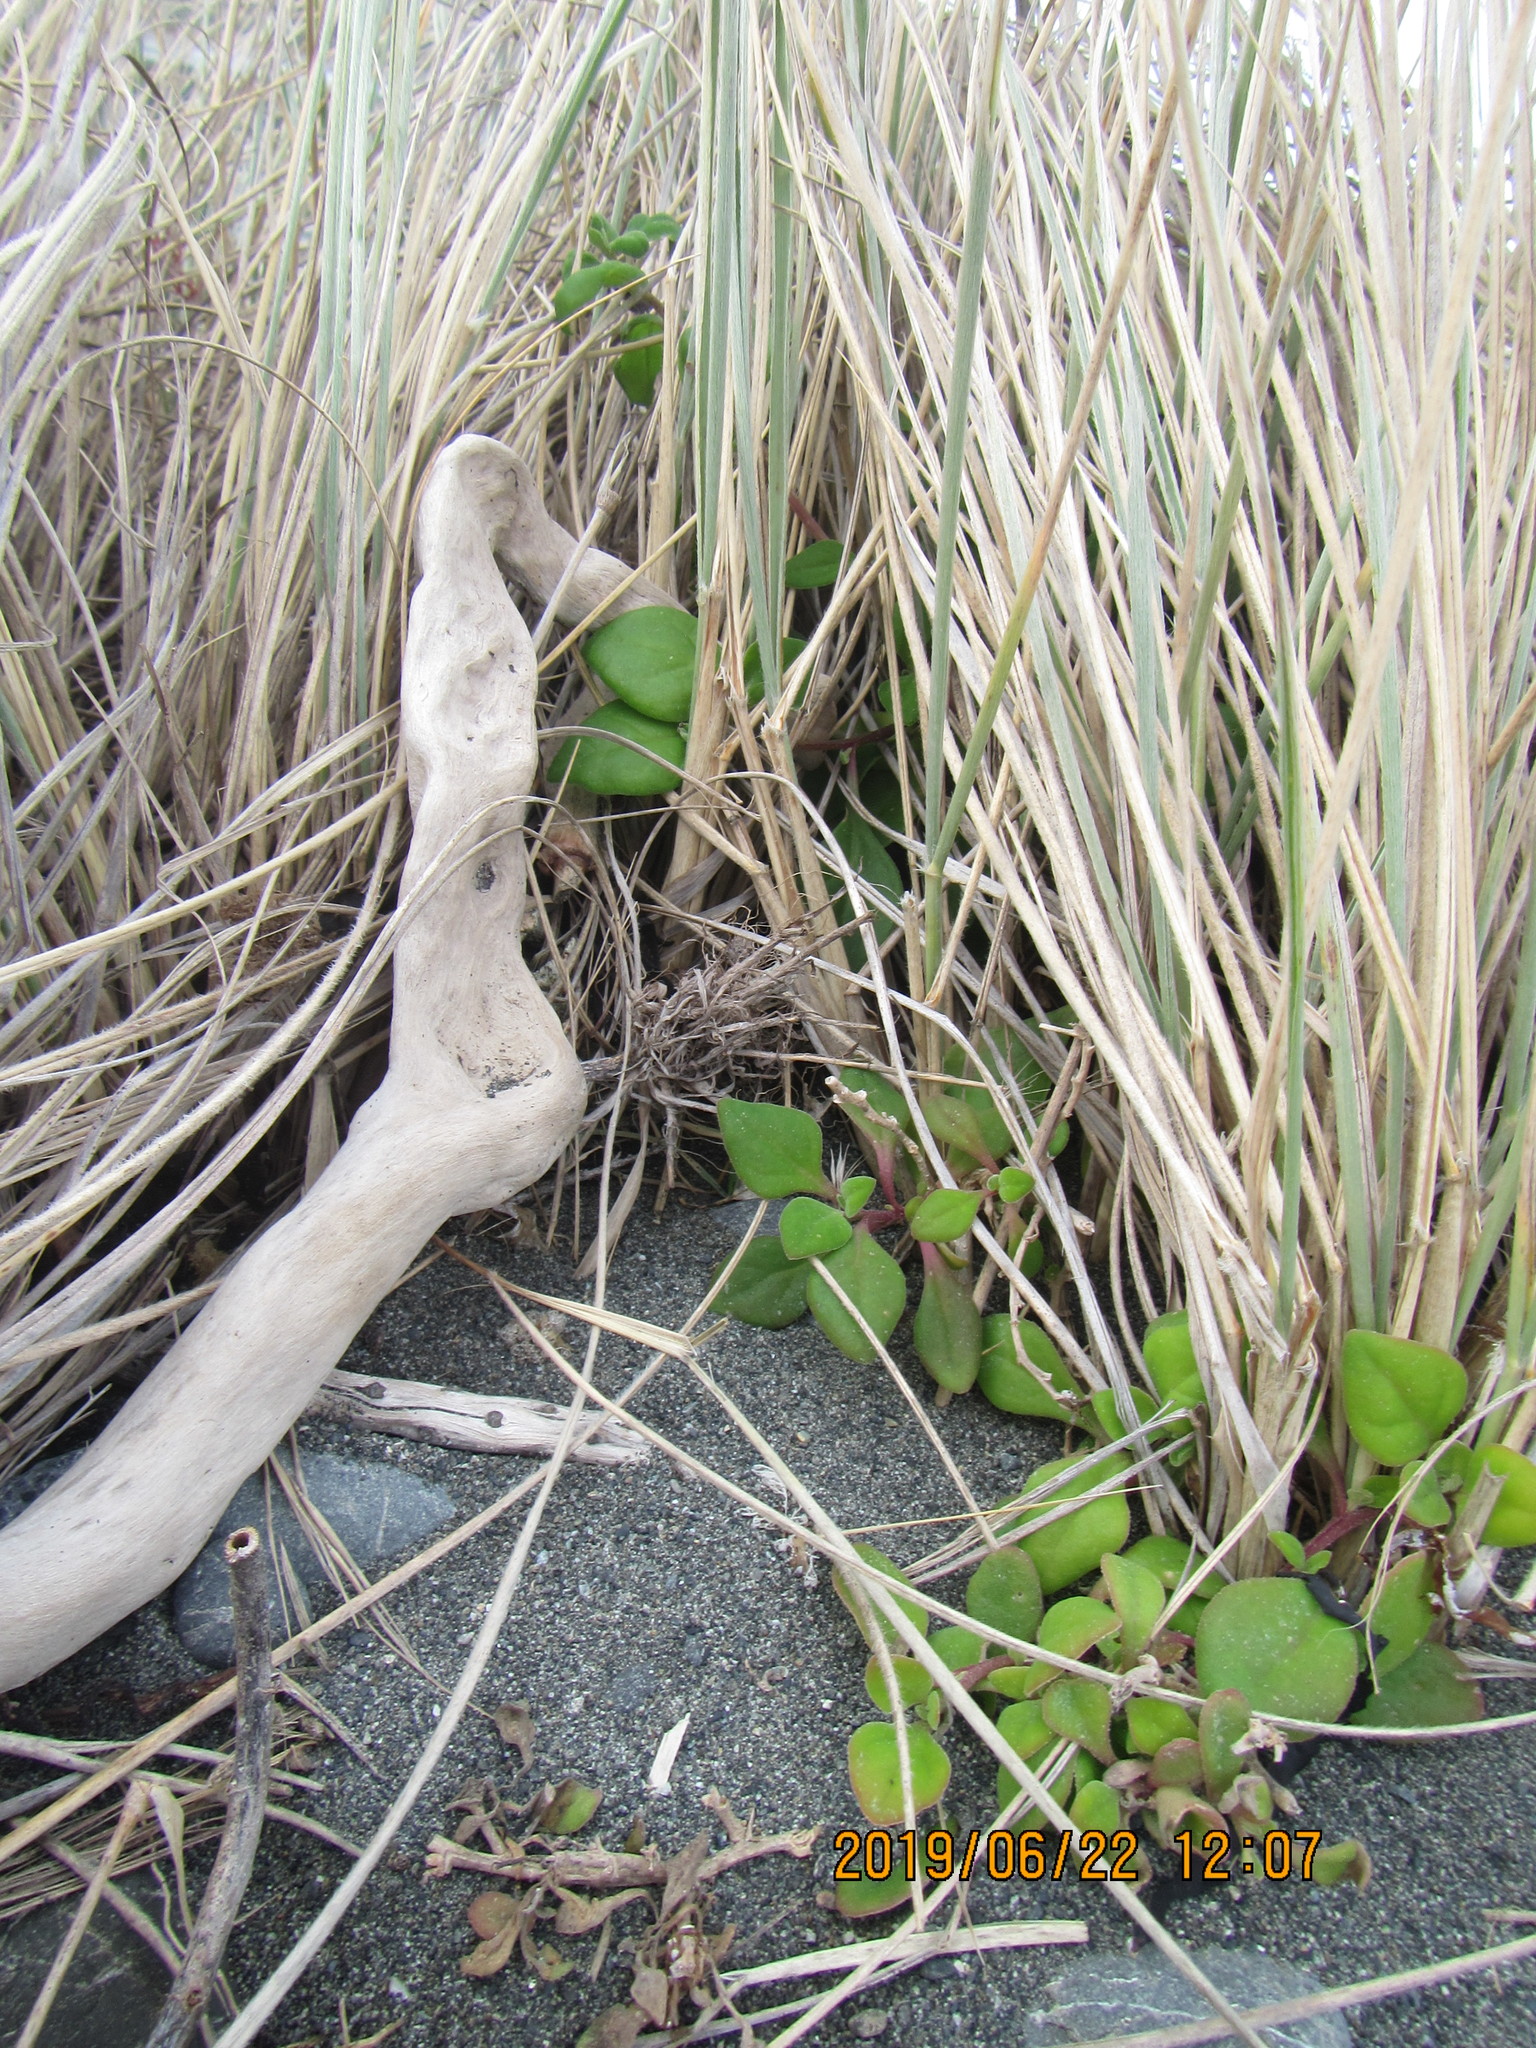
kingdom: Plantae
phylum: Tracheophyta
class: Magnoliopsida
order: Caryophyllales
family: Aizoaceae
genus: Tetragonia
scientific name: Tetragonia implexicoma
